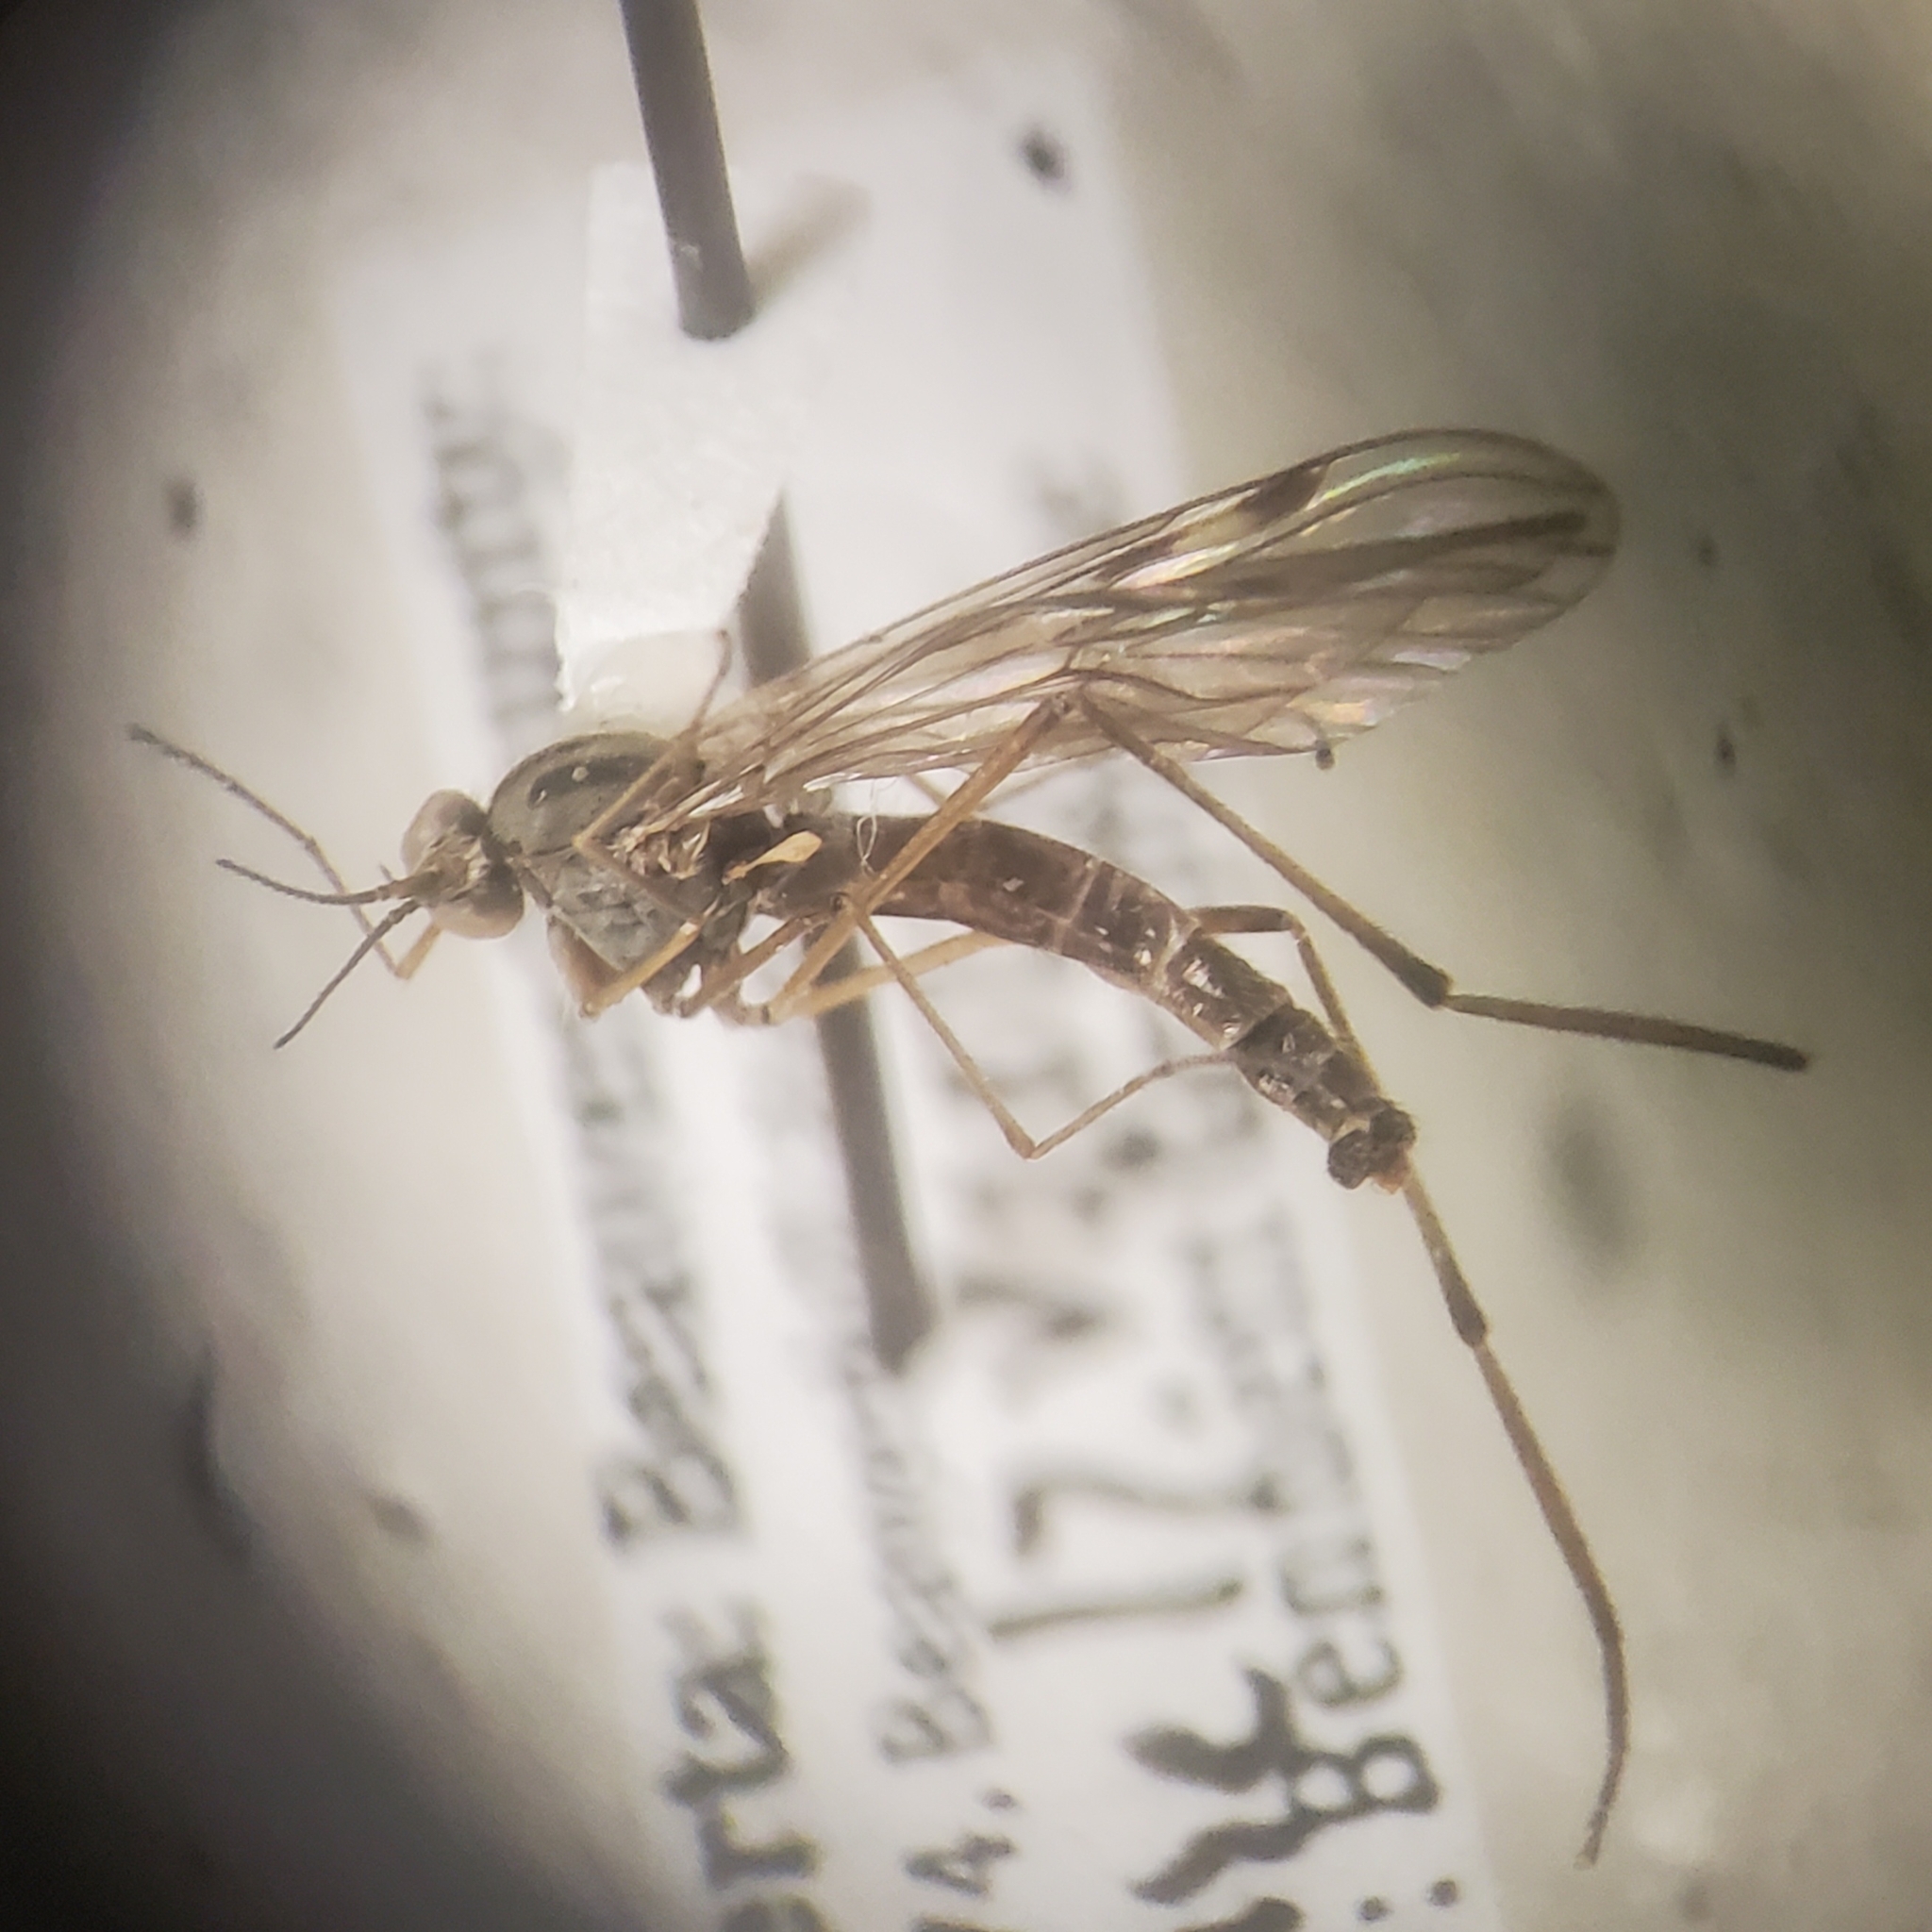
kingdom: Animalia
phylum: Arthropoda
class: Insecta
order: Diptera
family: Anisopodidae
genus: Sylvicola
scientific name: Sylvicola fuscatus
